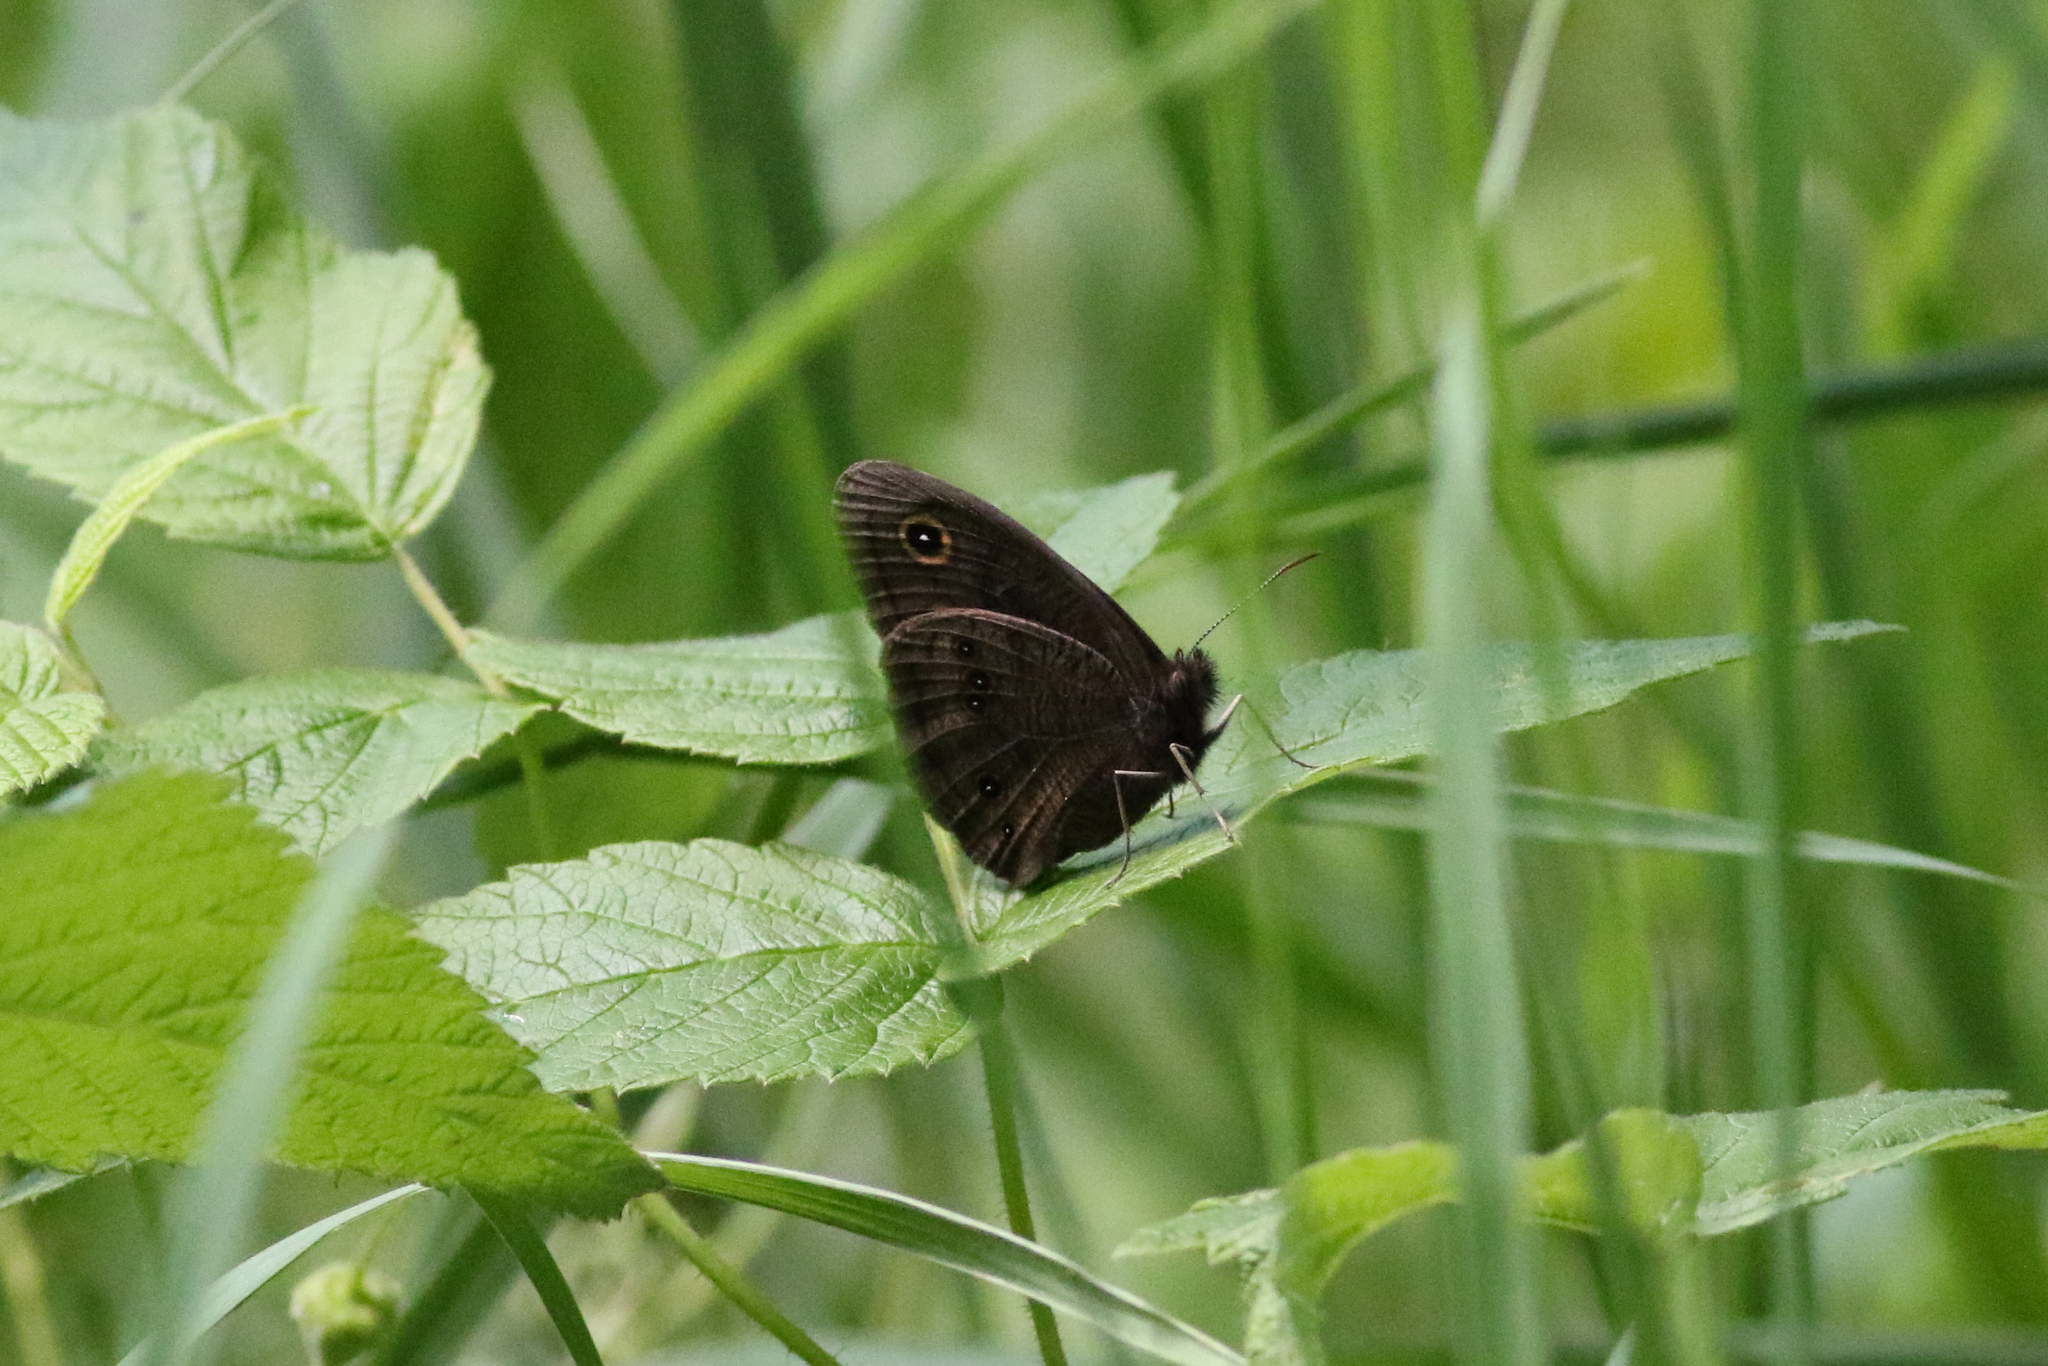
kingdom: Animalia
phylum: Arthropoda
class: Insecta
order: Lepidoptera
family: Nymphalidae
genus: Cercyonis
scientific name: Cercyonis pegala
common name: Common wood-nymph
